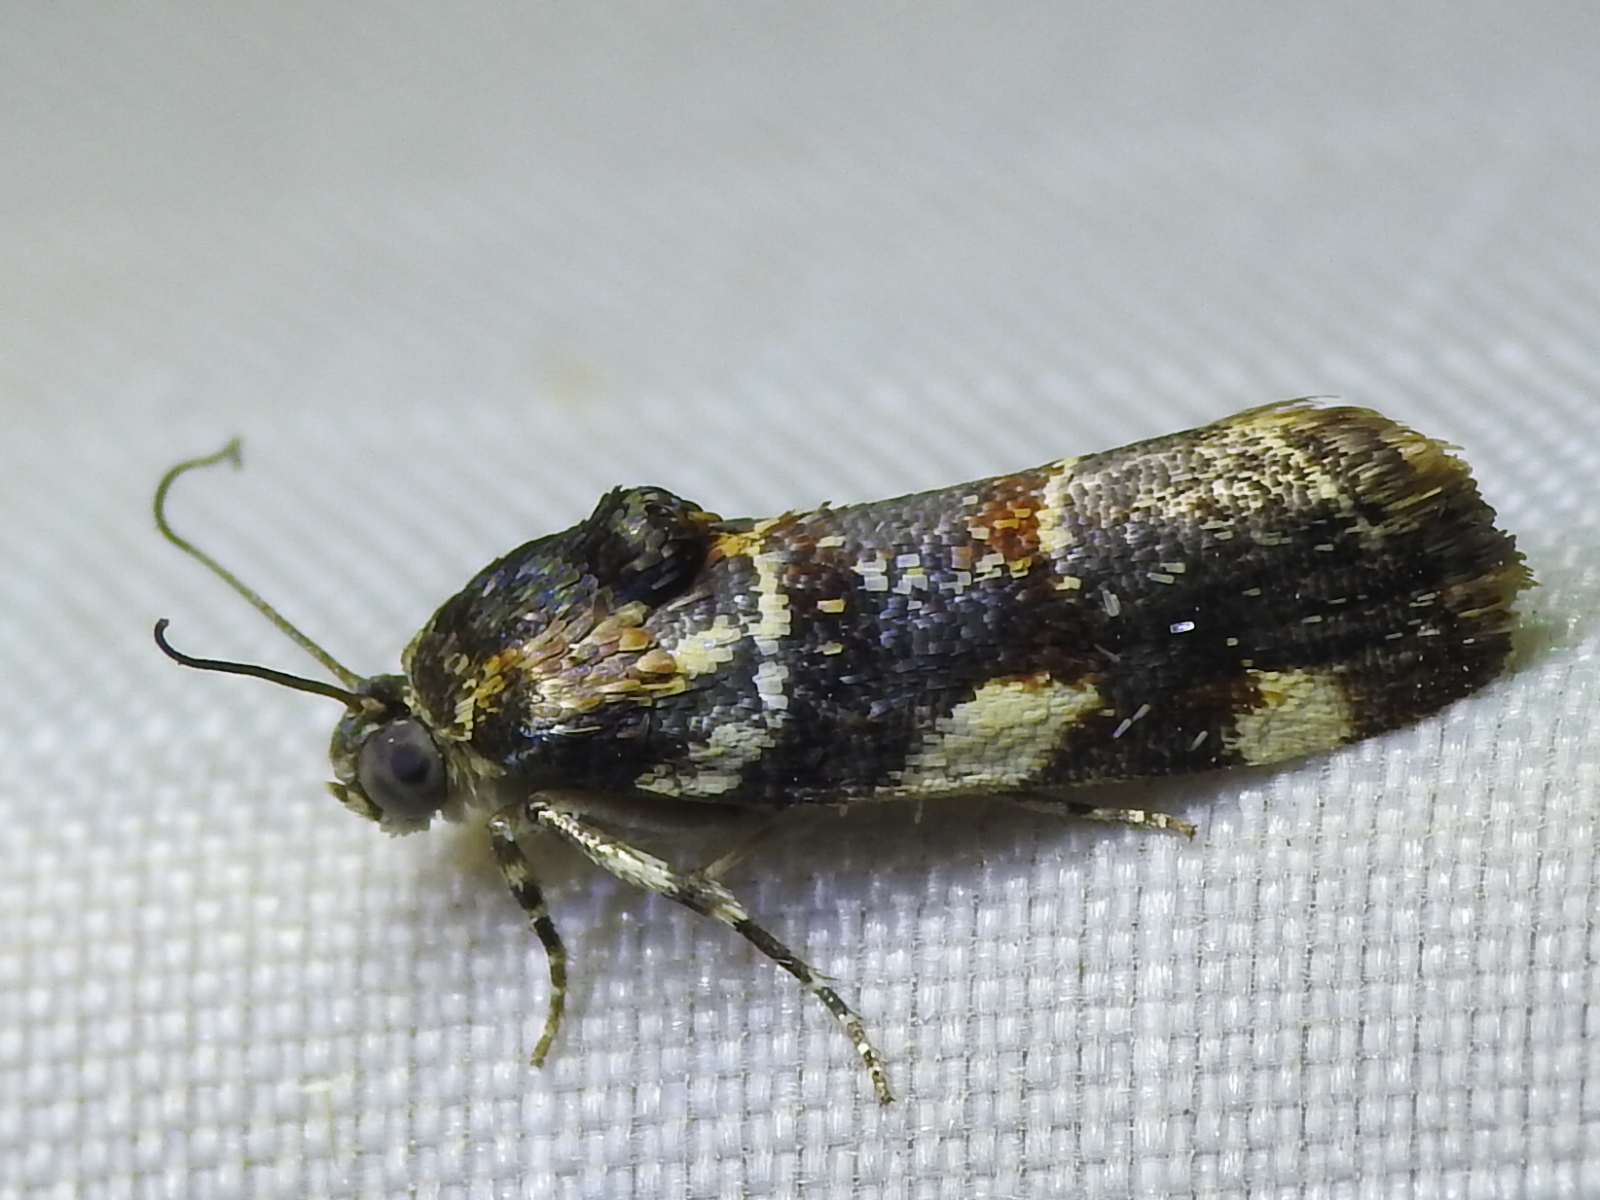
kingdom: Animalia
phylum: Arthropoda
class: Insecta
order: Lepidoptera
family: Noctuidae
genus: Spragueia
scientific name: Spragueia jaguaralis
